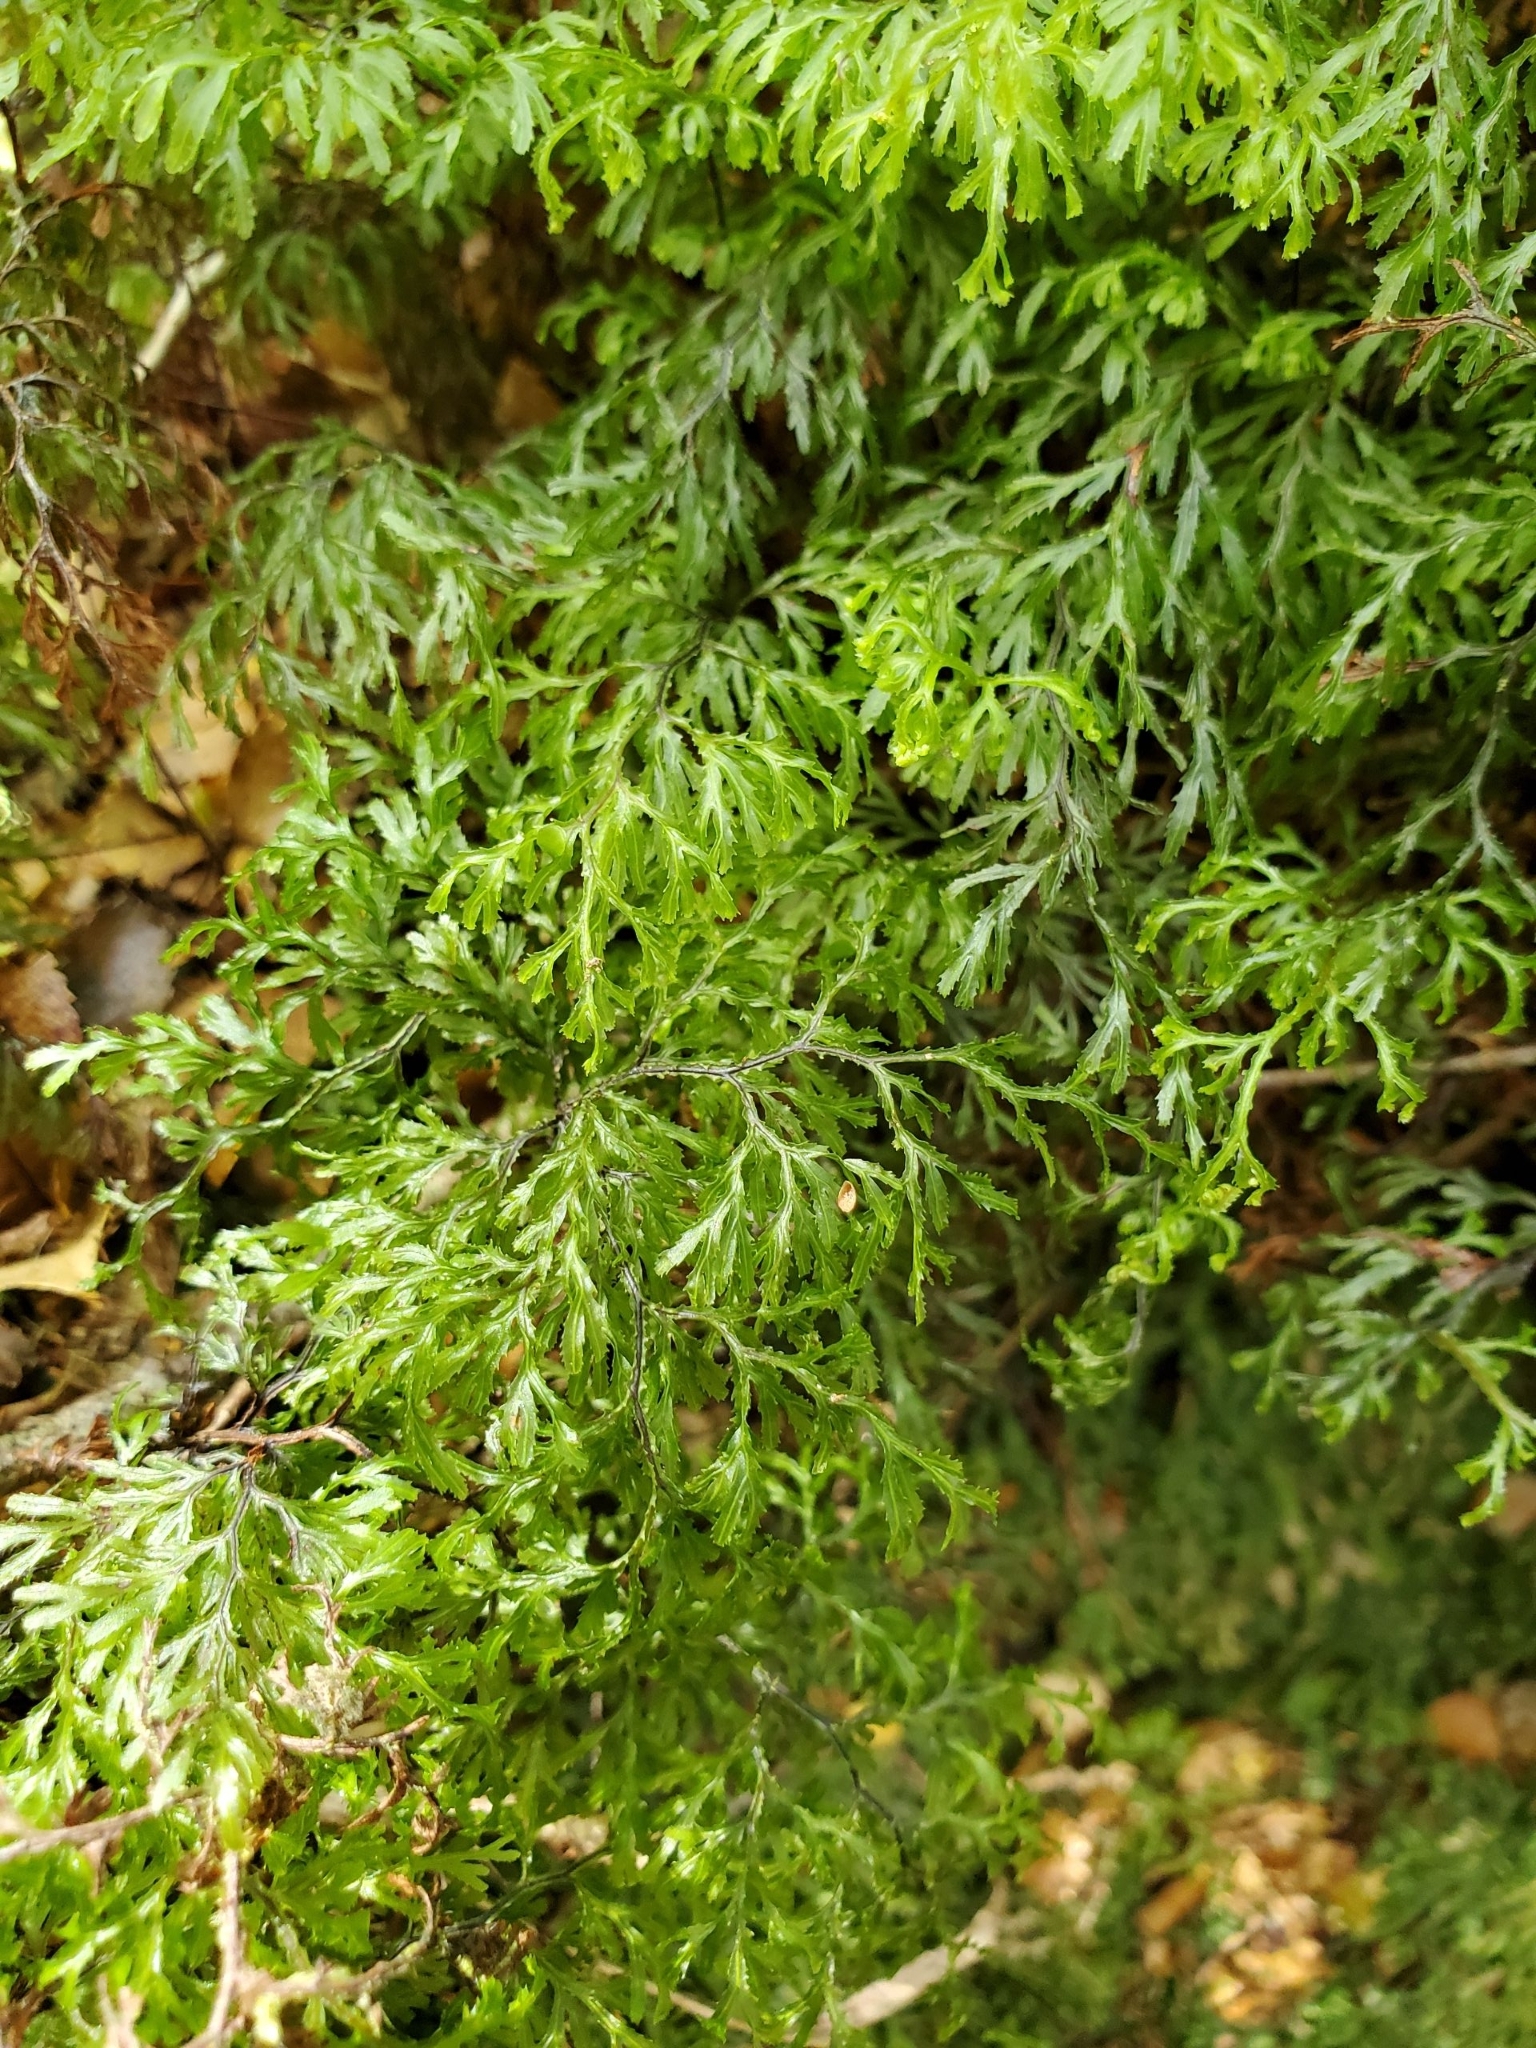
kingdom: Plantae
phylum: Tracheophyta
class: Polypodiopsida
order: Hymenophyllales
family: Hymenophyllaceae
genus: Hymenophyllum
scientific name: Hymenophyllum multifidum
